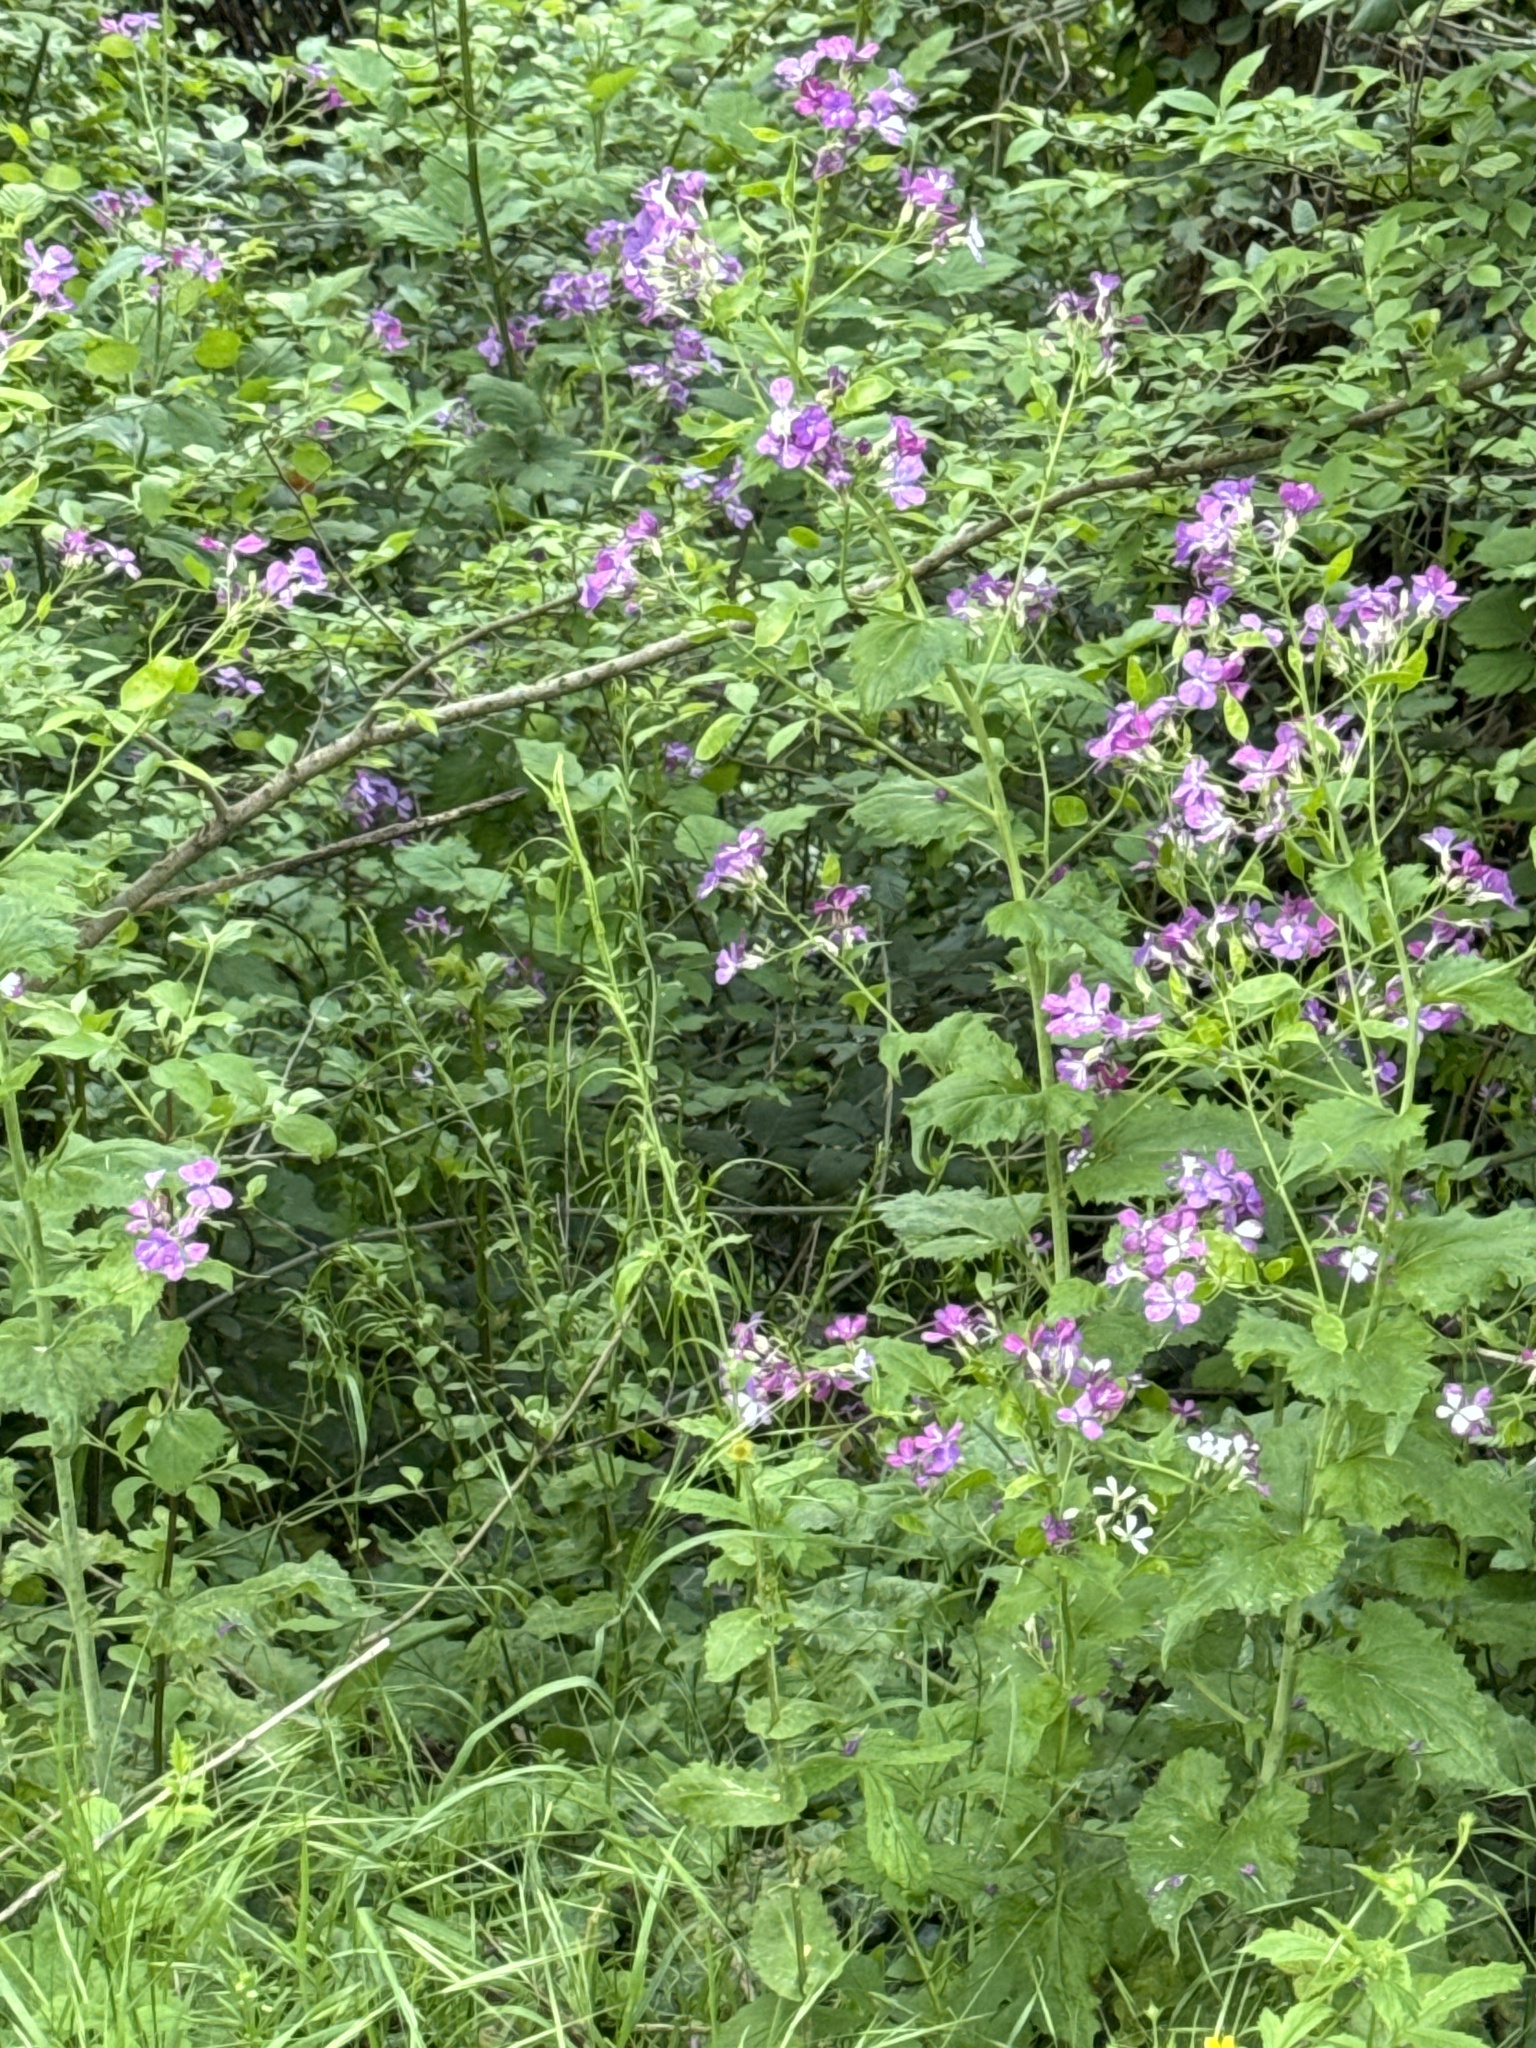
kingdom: Plantae
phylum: Tracheophyta
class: Magnoliopsida
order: Brassicales
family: Brassicaceae
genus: Lunaria
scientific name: Lunaria annua
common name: Honesty
